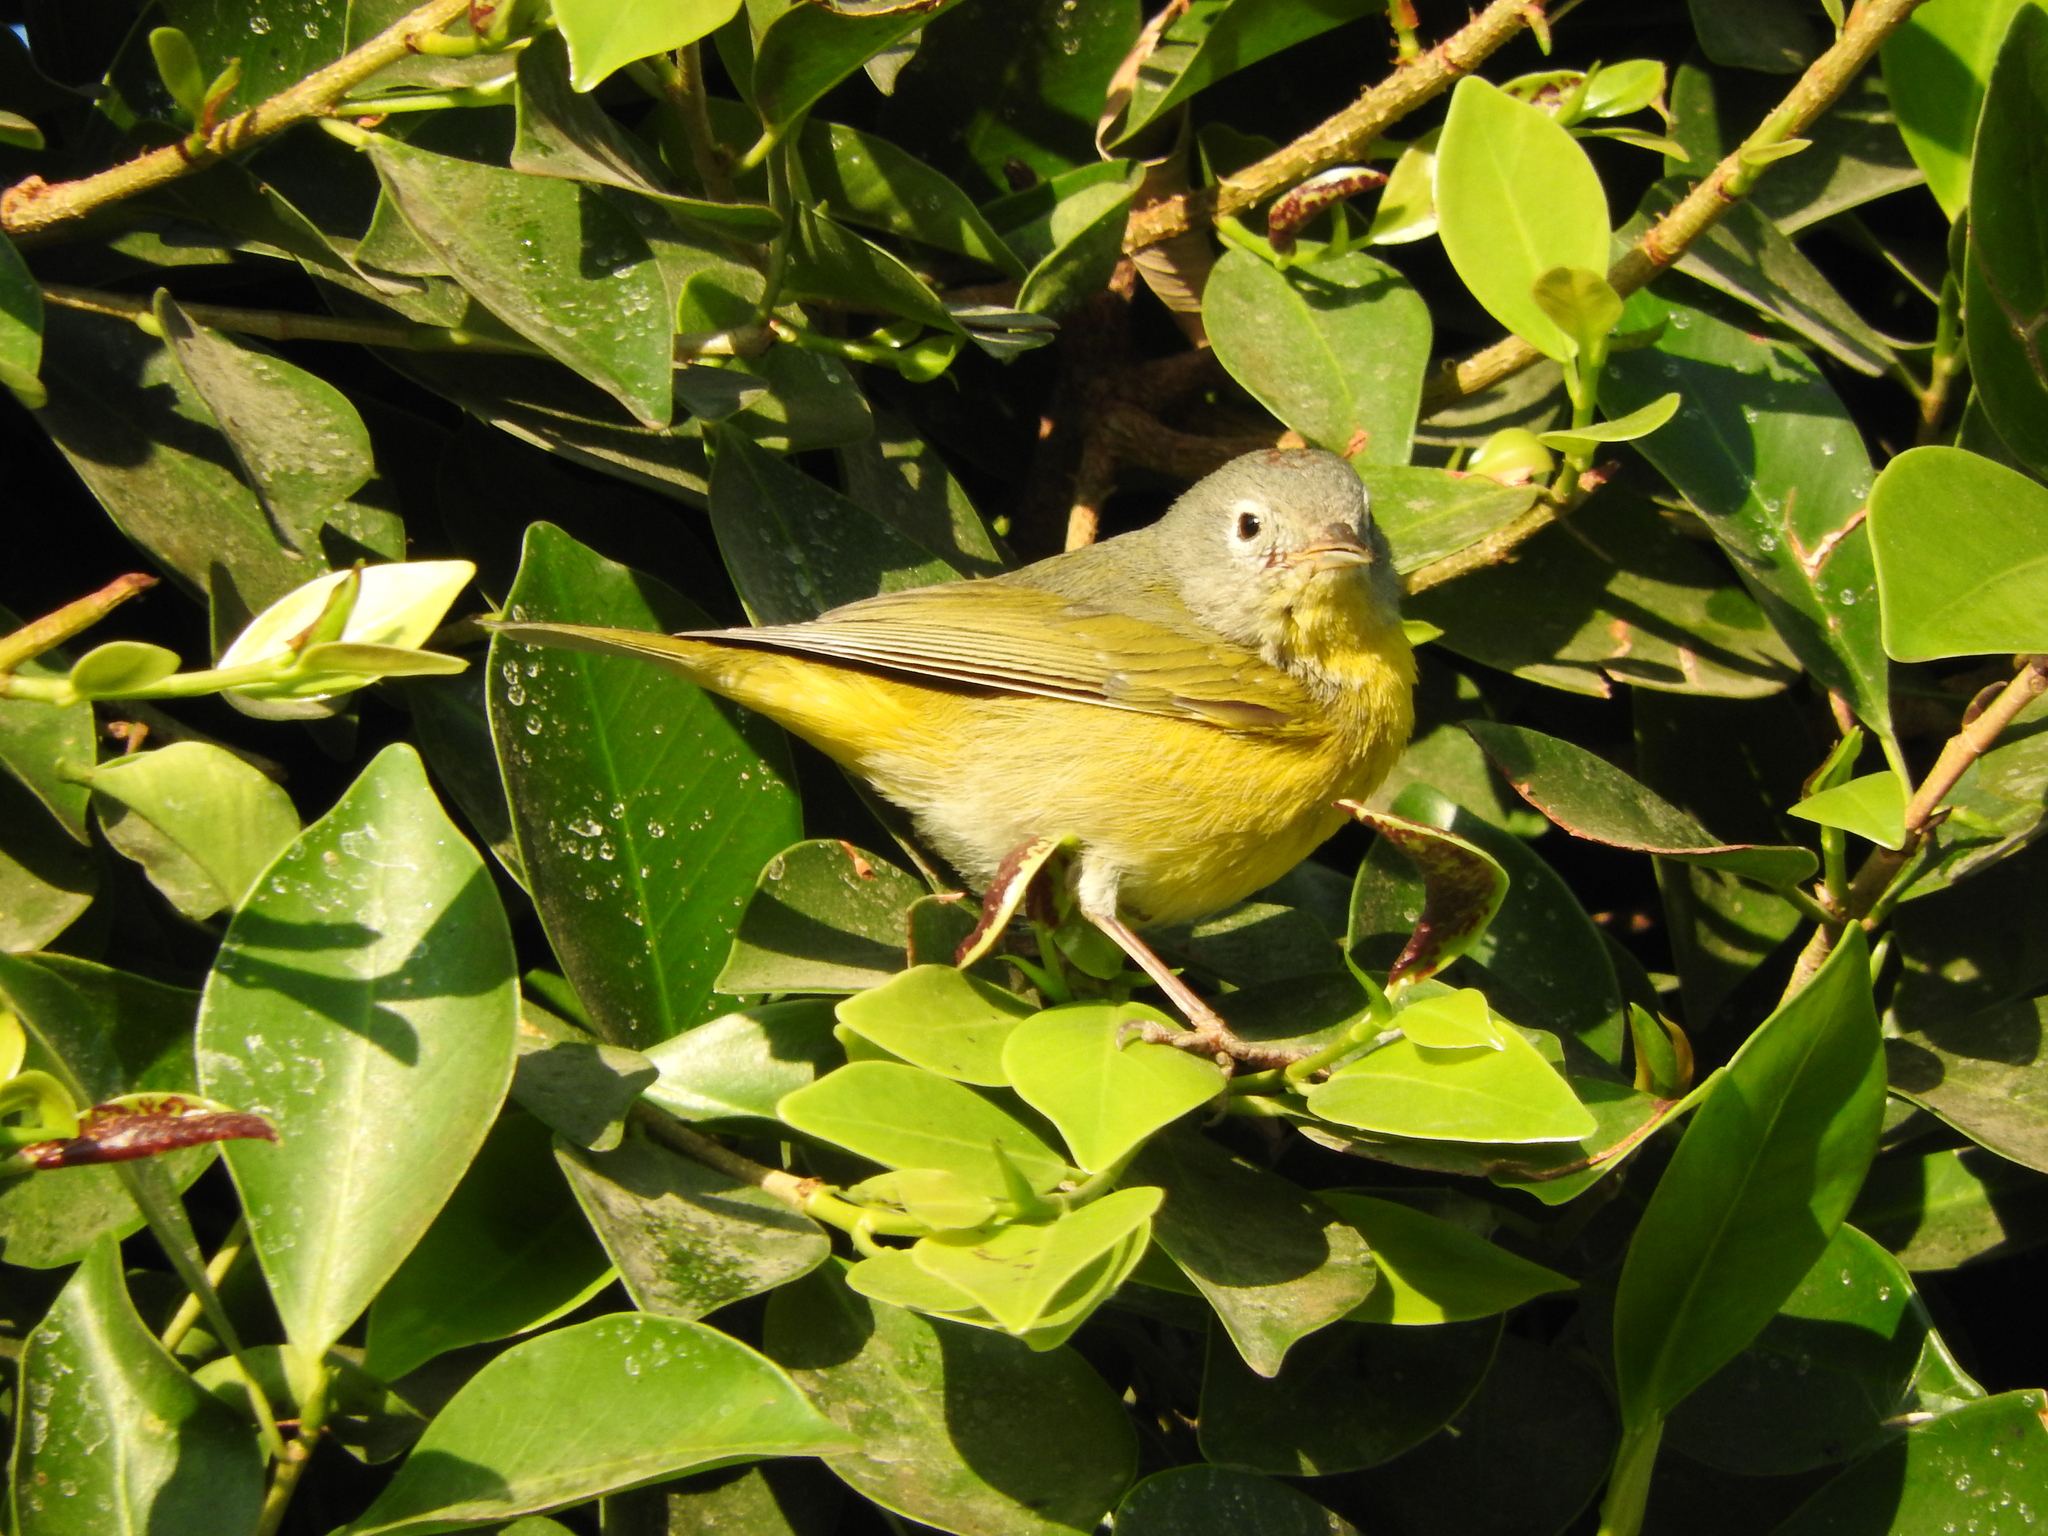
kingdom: Animalia
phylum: Chordata
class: Aves
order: Passeriformes
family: Parulidae
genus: Leiothlypis
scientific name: Leiothlypis ruficapilla
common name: Nashville warbler
